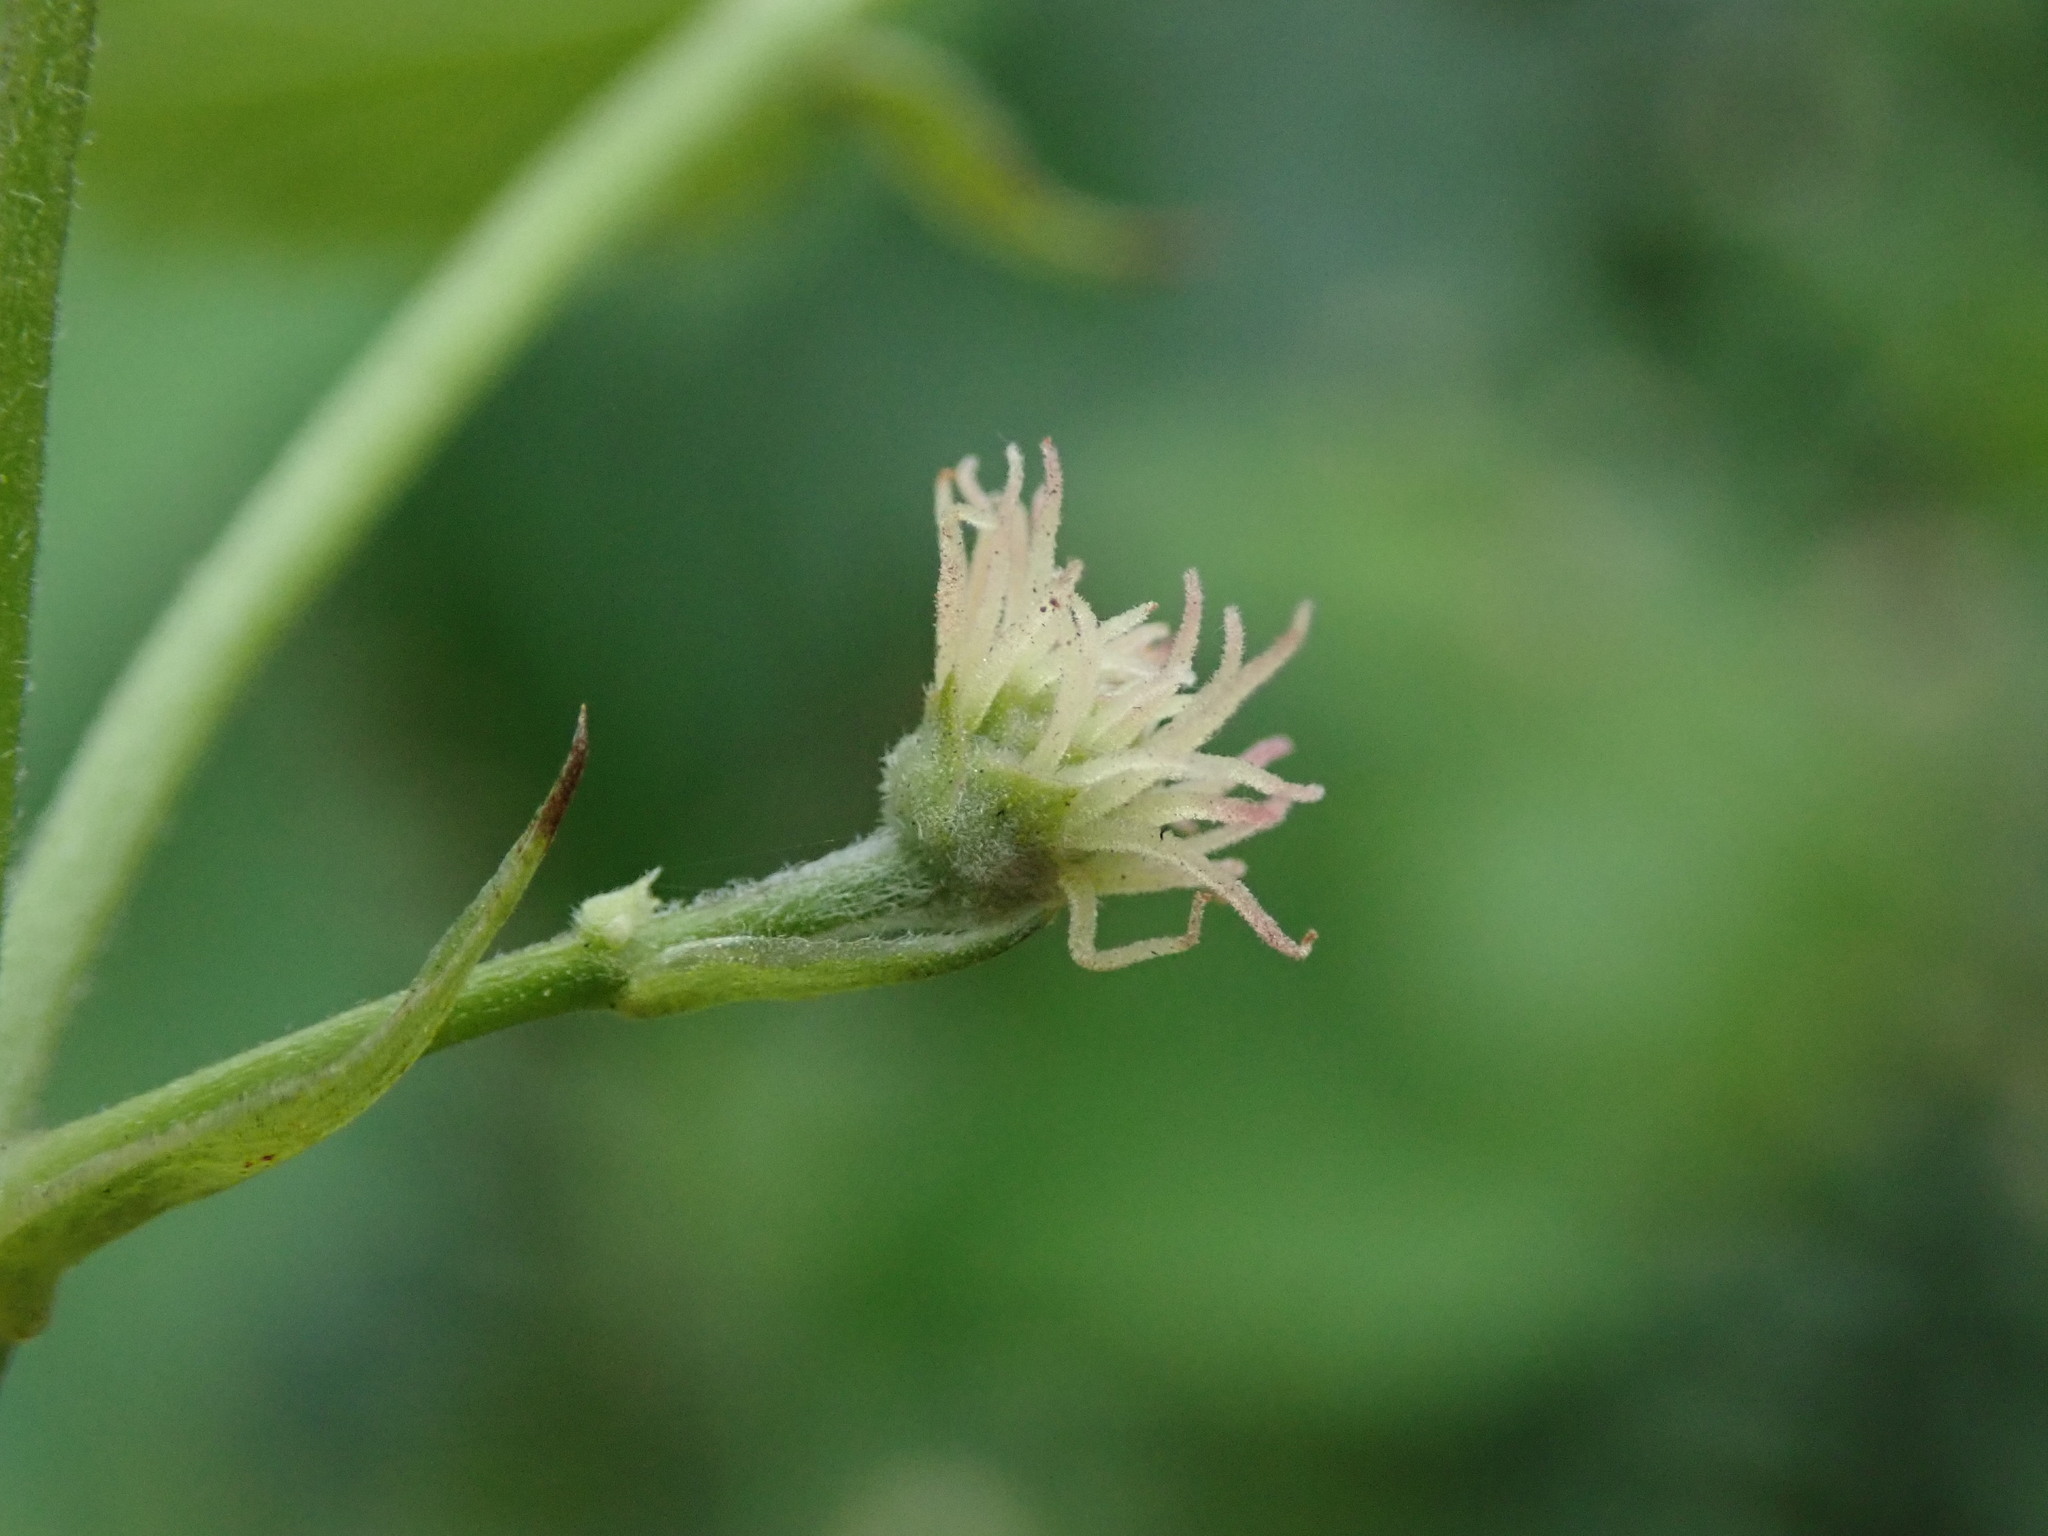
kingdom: Plantae
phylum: Tracheophyta
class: Magnoliopsida
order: Rosales
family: Cannabaceae
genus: Humulus
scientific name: Humulus lupulus
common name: Hop
